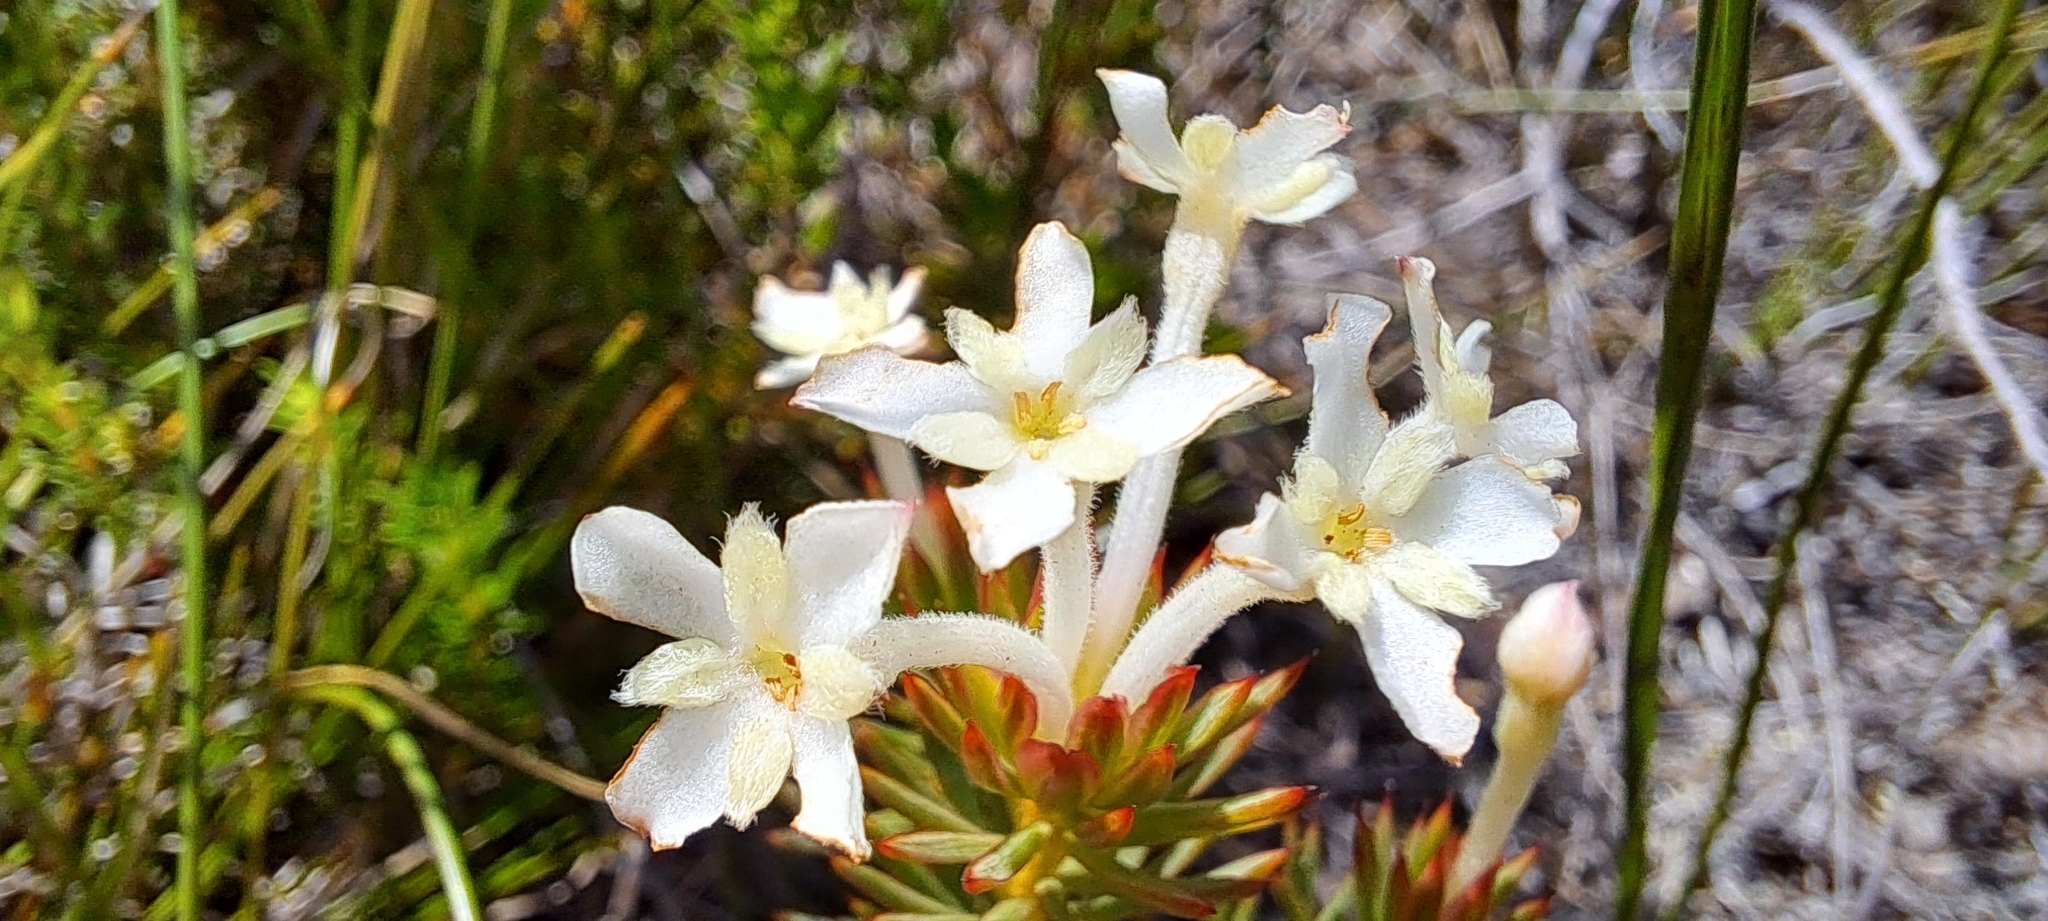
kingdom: Plantae
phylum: Tracheophyta
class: Magnoliopsida
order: Malvales
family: Thymelaeaceae
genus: Gnidia
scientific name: Gnidia pinifolia
